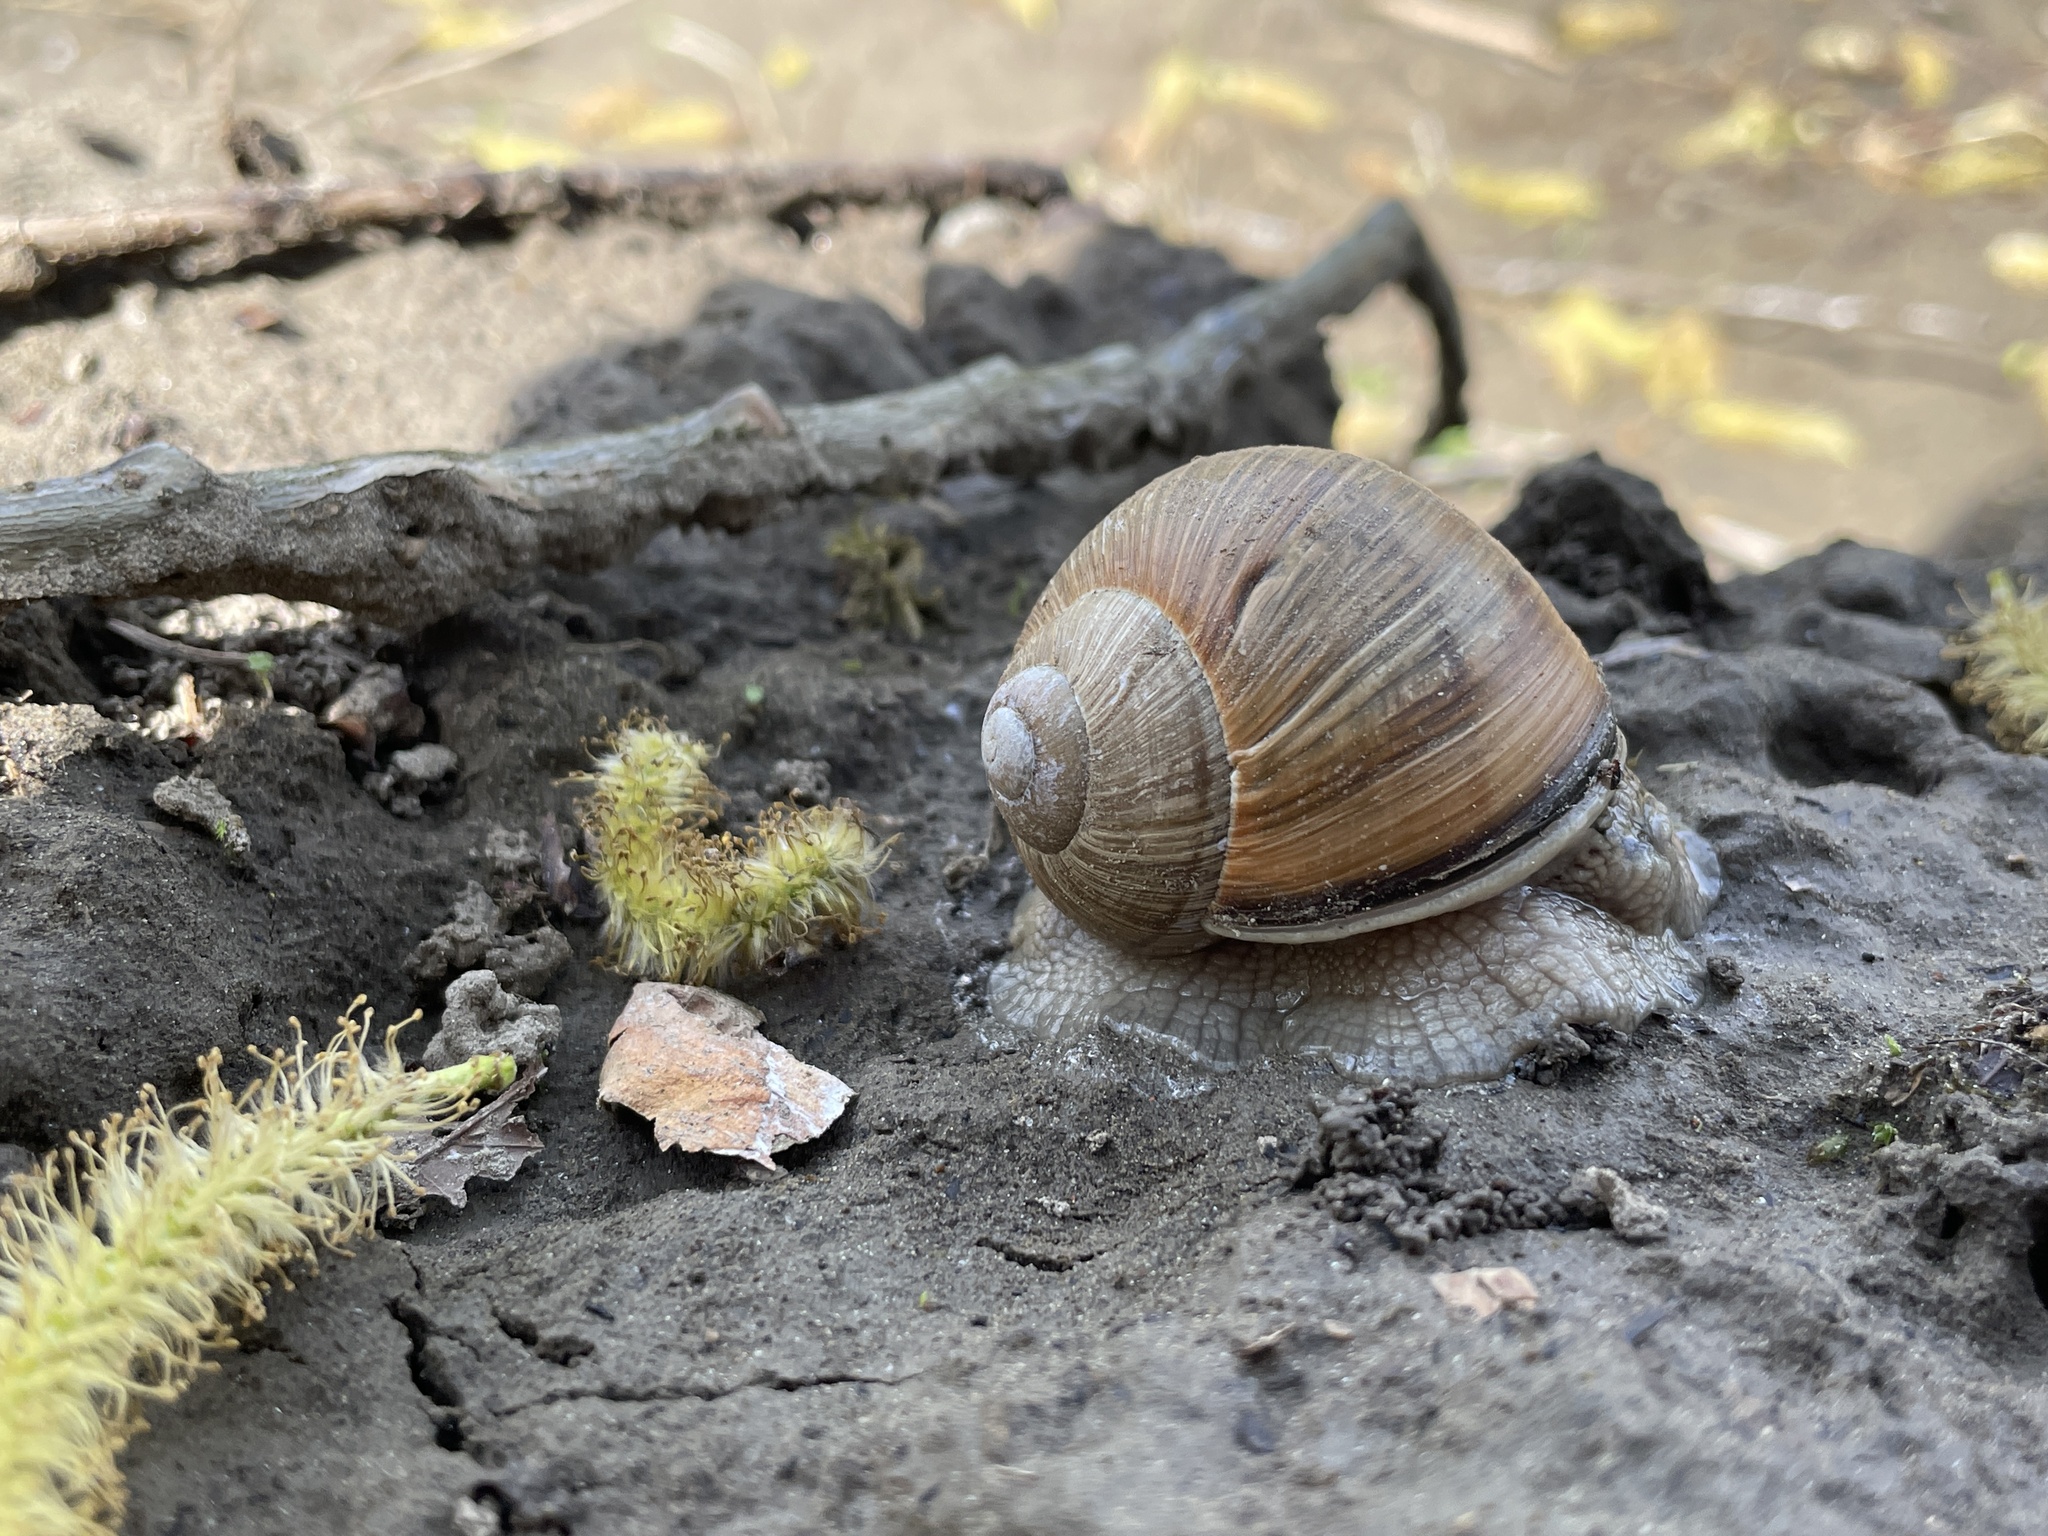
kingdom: Animalia
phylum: Mollusca
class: Gastropoda
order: Stylommatophora
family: Helicidae
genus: Helix
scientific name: Helix pomatia
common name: Roman snail
